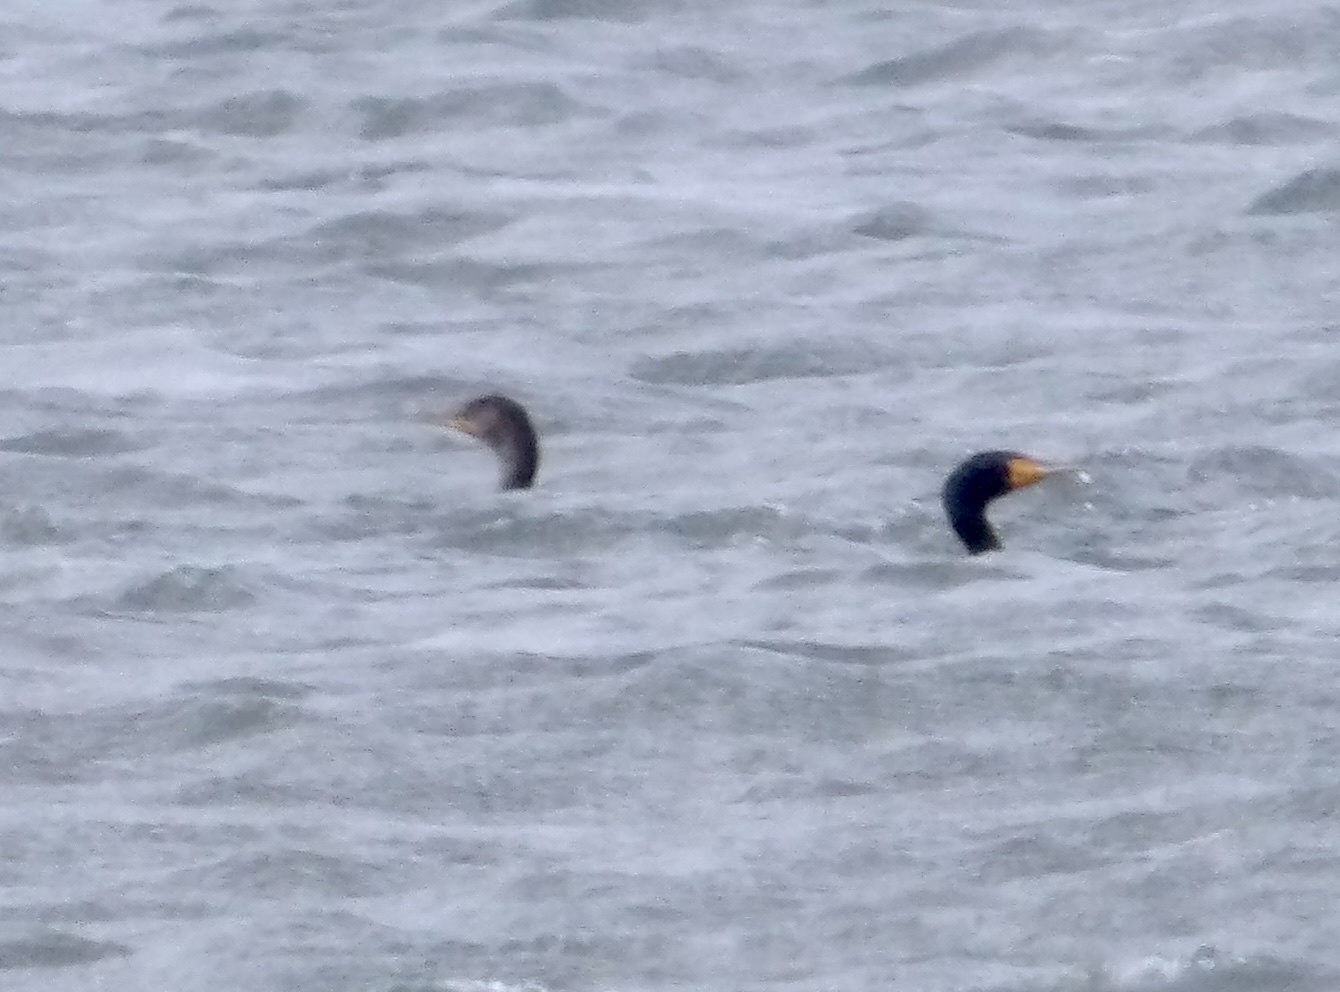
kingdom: Animalia
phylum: Chordata
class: Aves
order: Suliformes
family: Phalacrocoracidae
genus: Phalacrocorax
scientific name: Phalacrocorax auritus
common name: Double-crested cormorant
